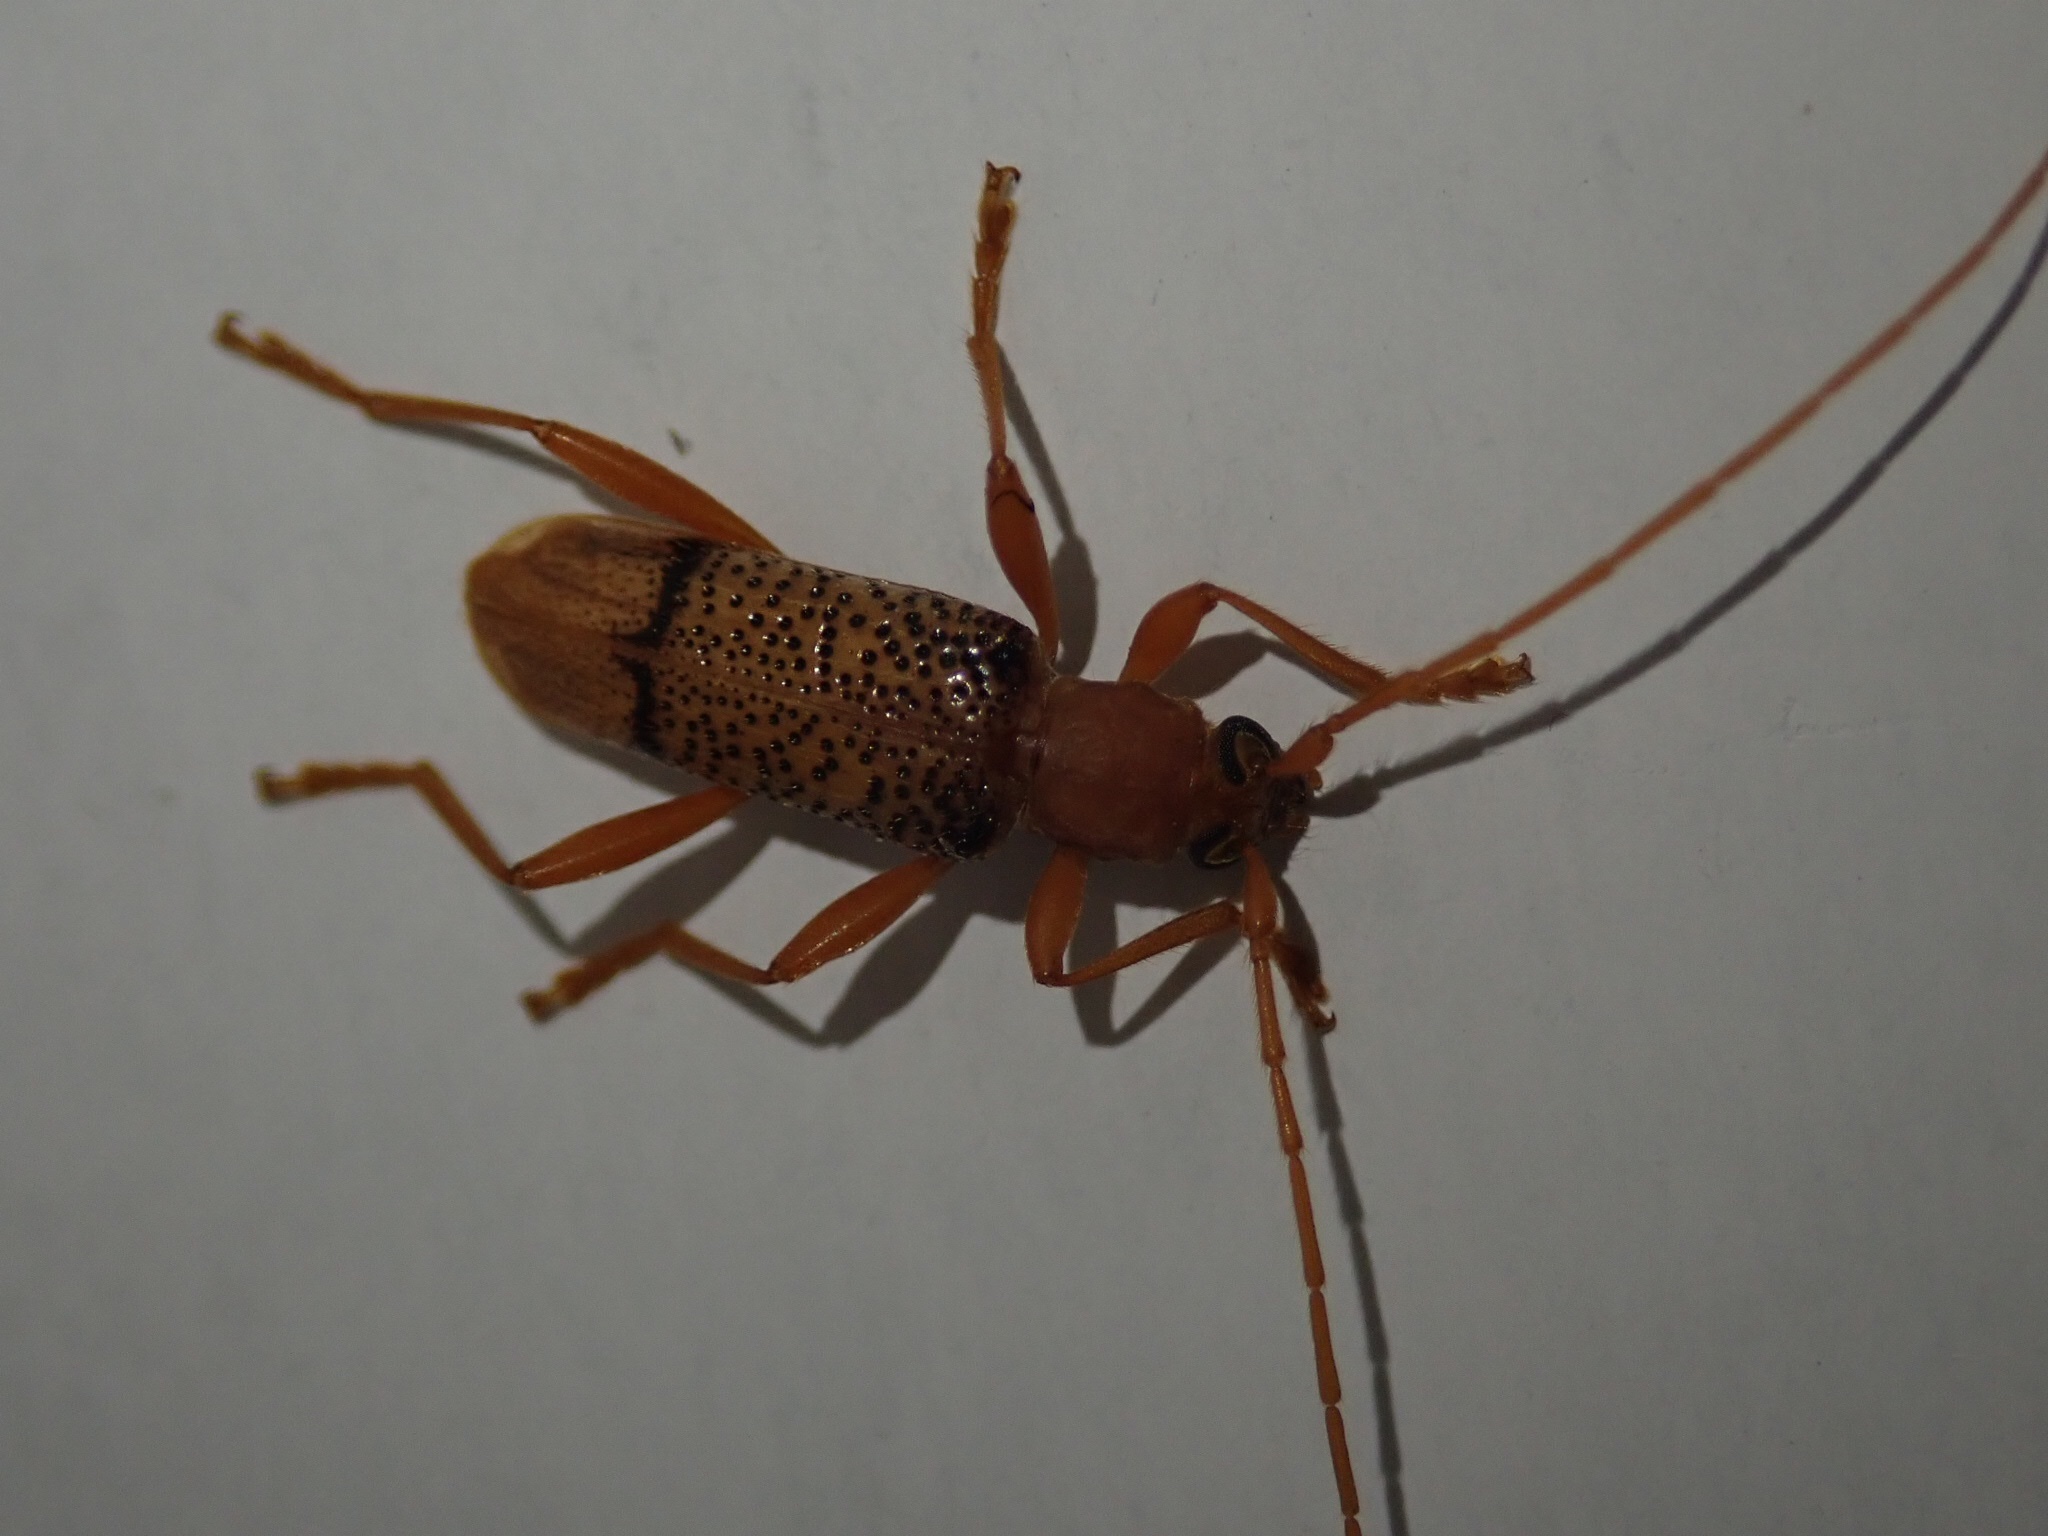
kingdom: Animalia
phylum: Arthropoda
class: Insecta
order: Coleoptera
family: Cerambycidae
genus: Xuthodes
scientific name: Xuthodes punctipennis
